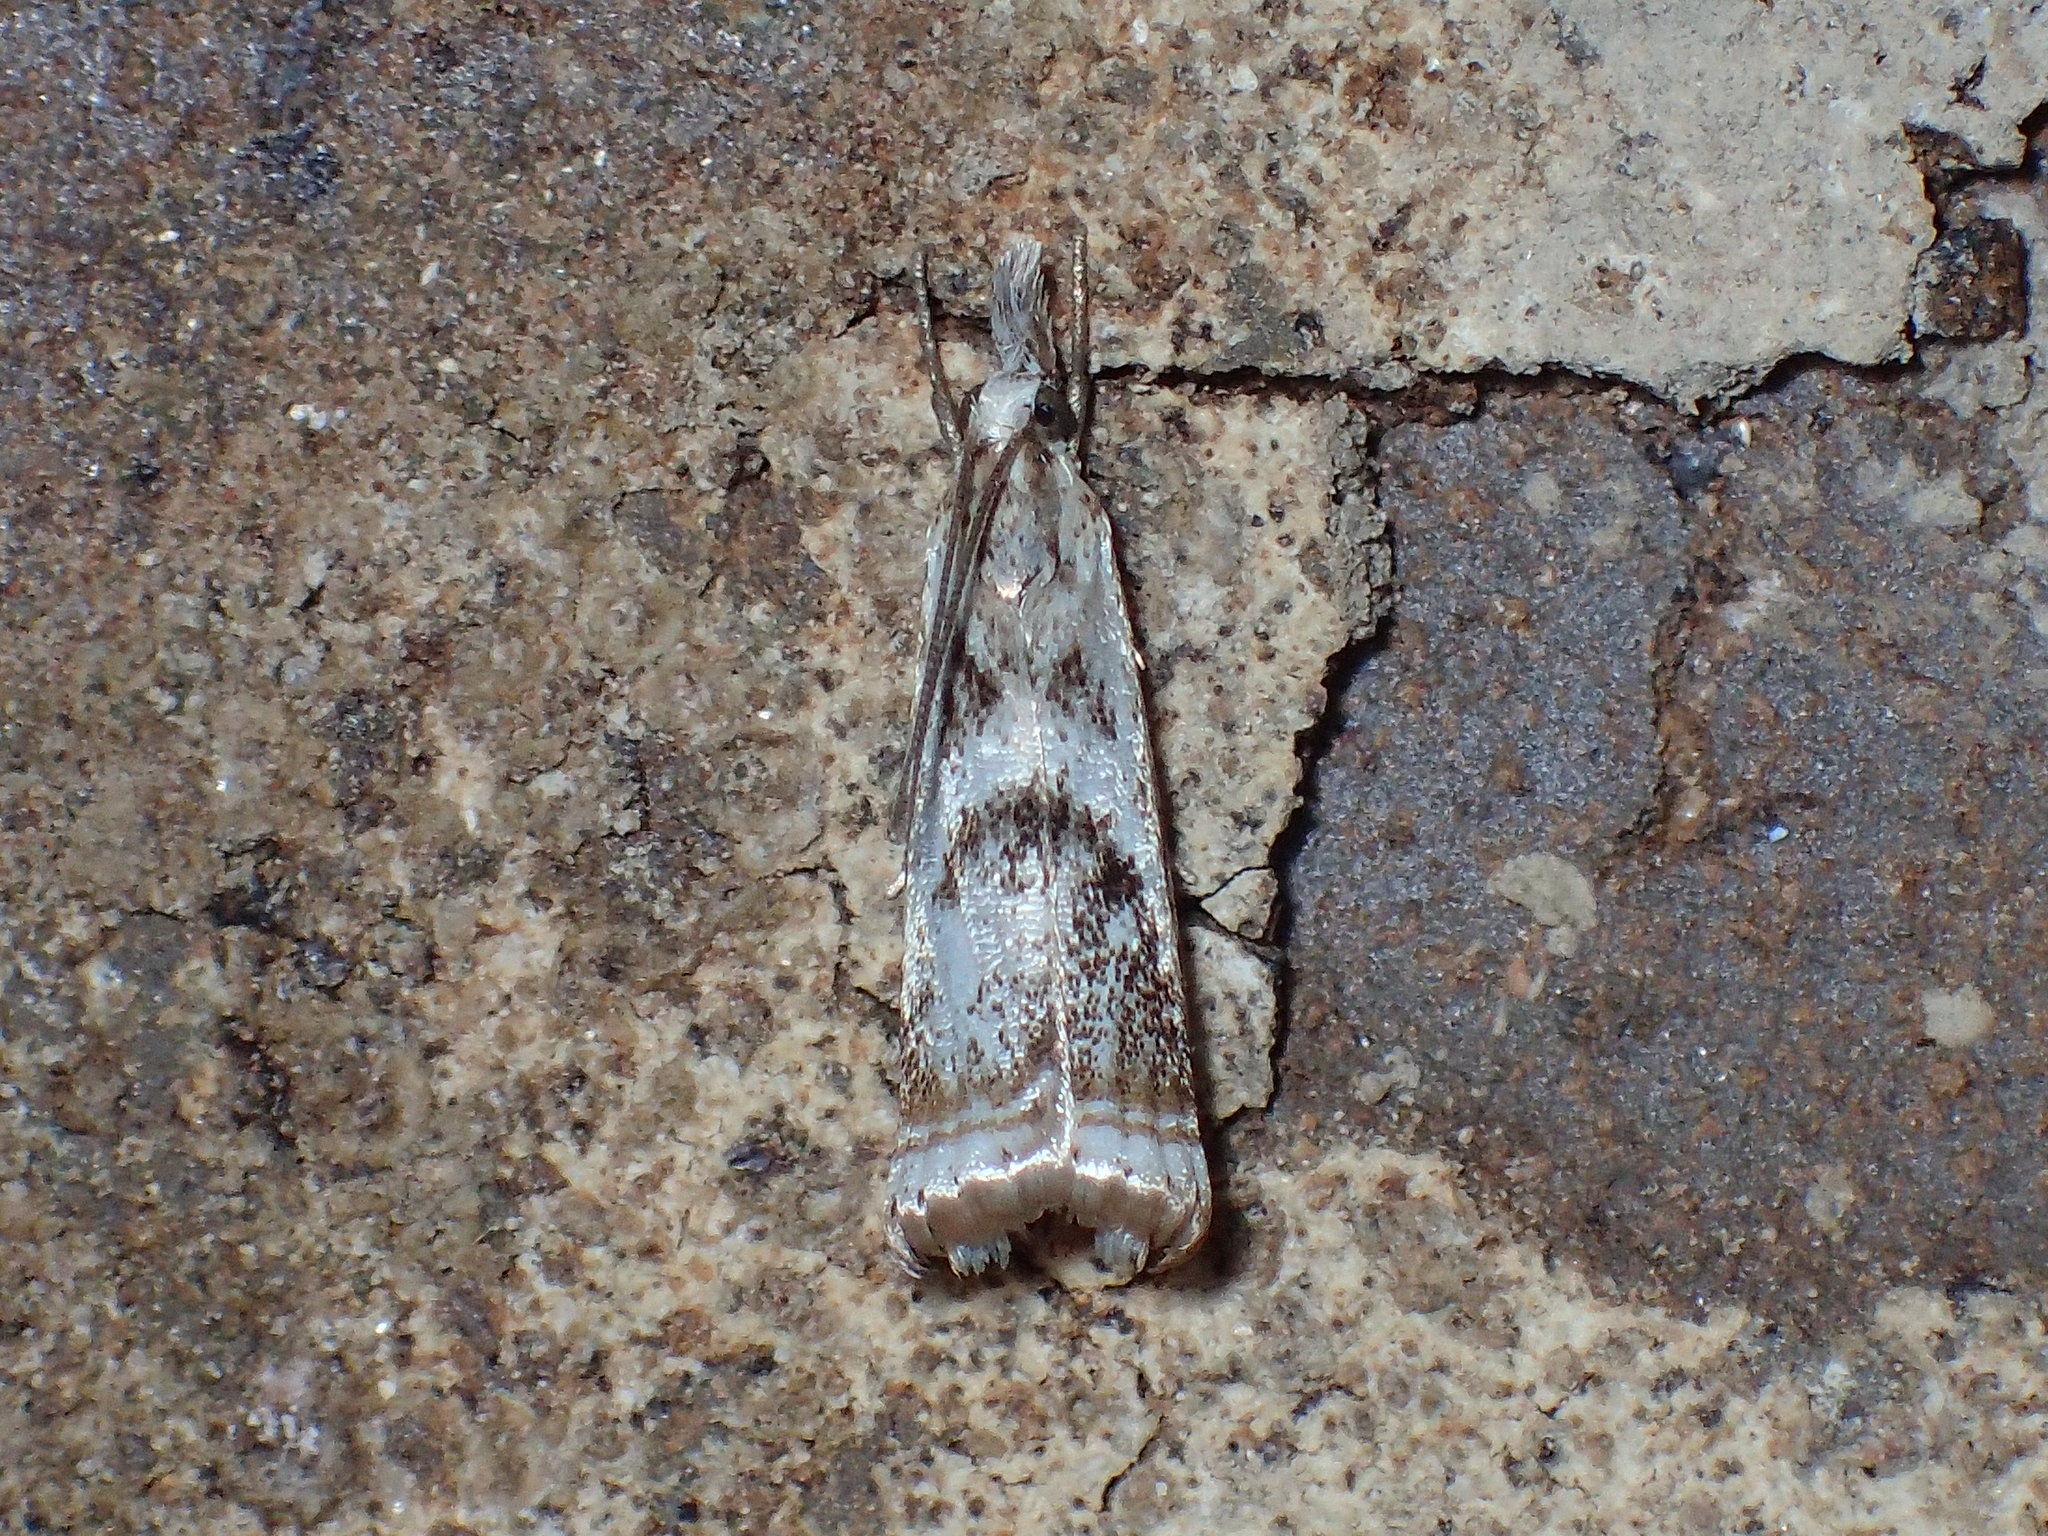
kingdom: Animalia
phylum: Arthropoda
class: Insecta
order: Lepidoptera
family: Crambidae
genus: Microcrambus
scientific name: Microcrambus elegans
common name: Elegant grass-veneer
